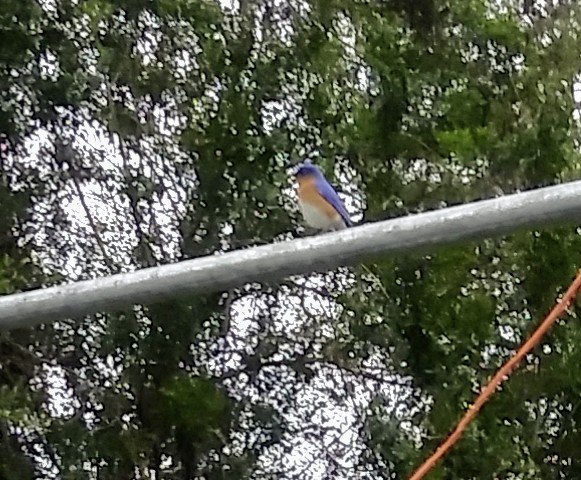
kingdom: Animalia
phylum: Chordata
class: Aves
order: Passeriformes
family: Turdidae
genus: Sialia
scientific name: Sialia sialis
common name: Eastern bluebird
